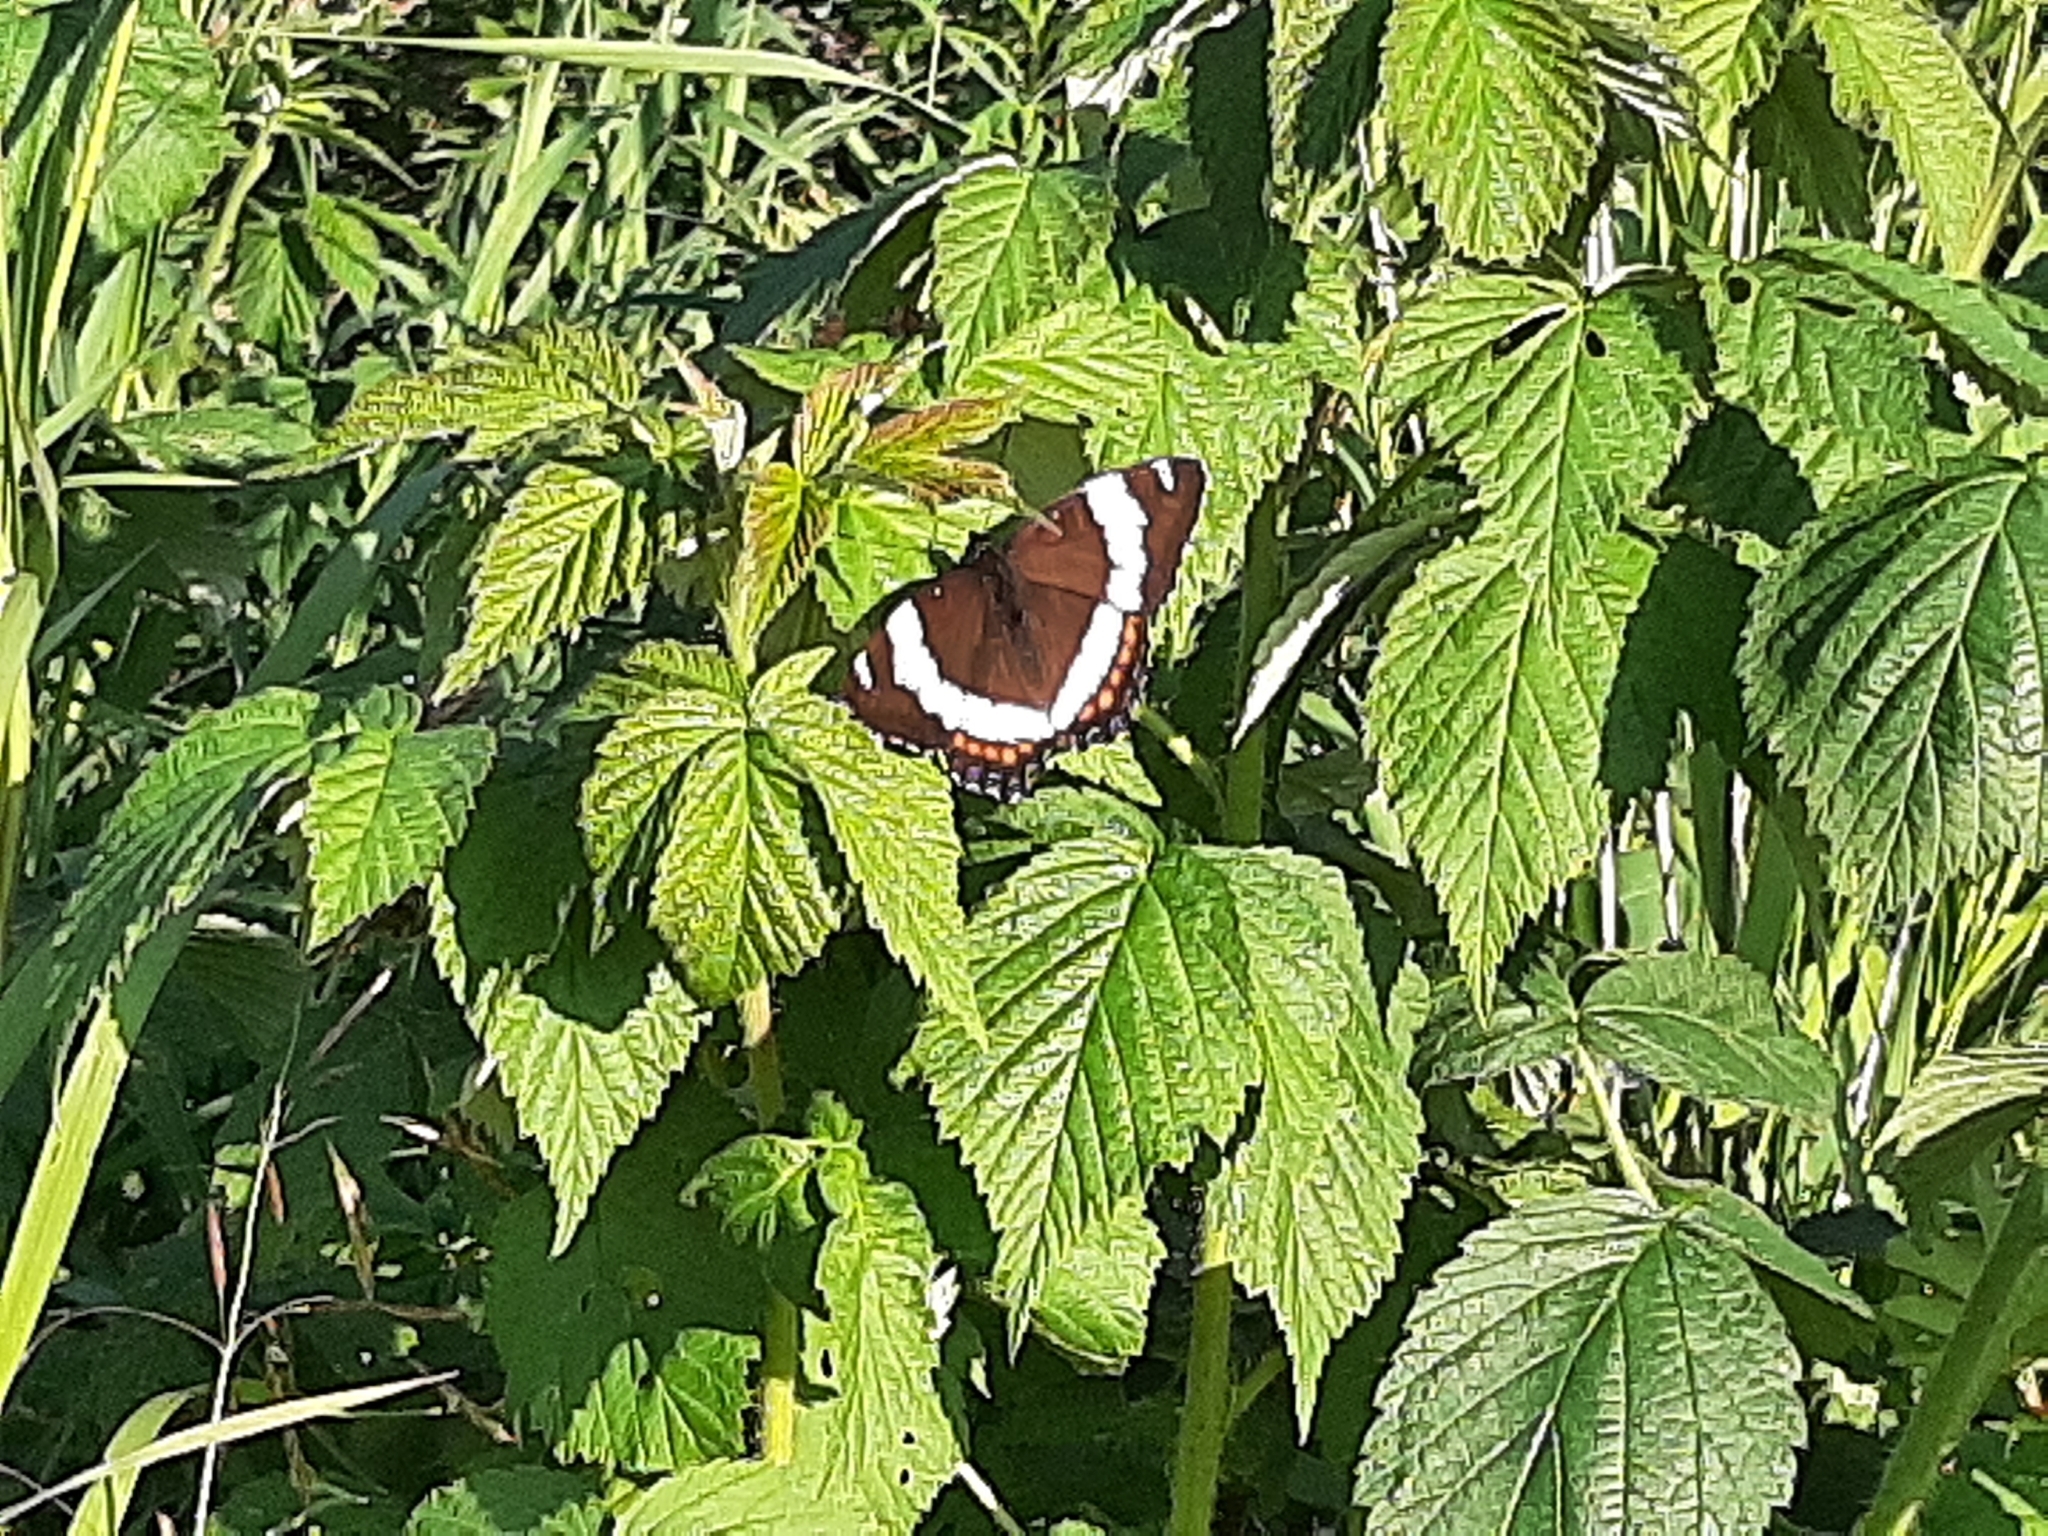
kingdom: Animalia
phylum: Arthropoda
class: Insecta
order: Lepidoptera
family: Nymphalidae
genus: Limenitis
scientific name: Limenitis arthemis
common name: Red-spotted admiral
